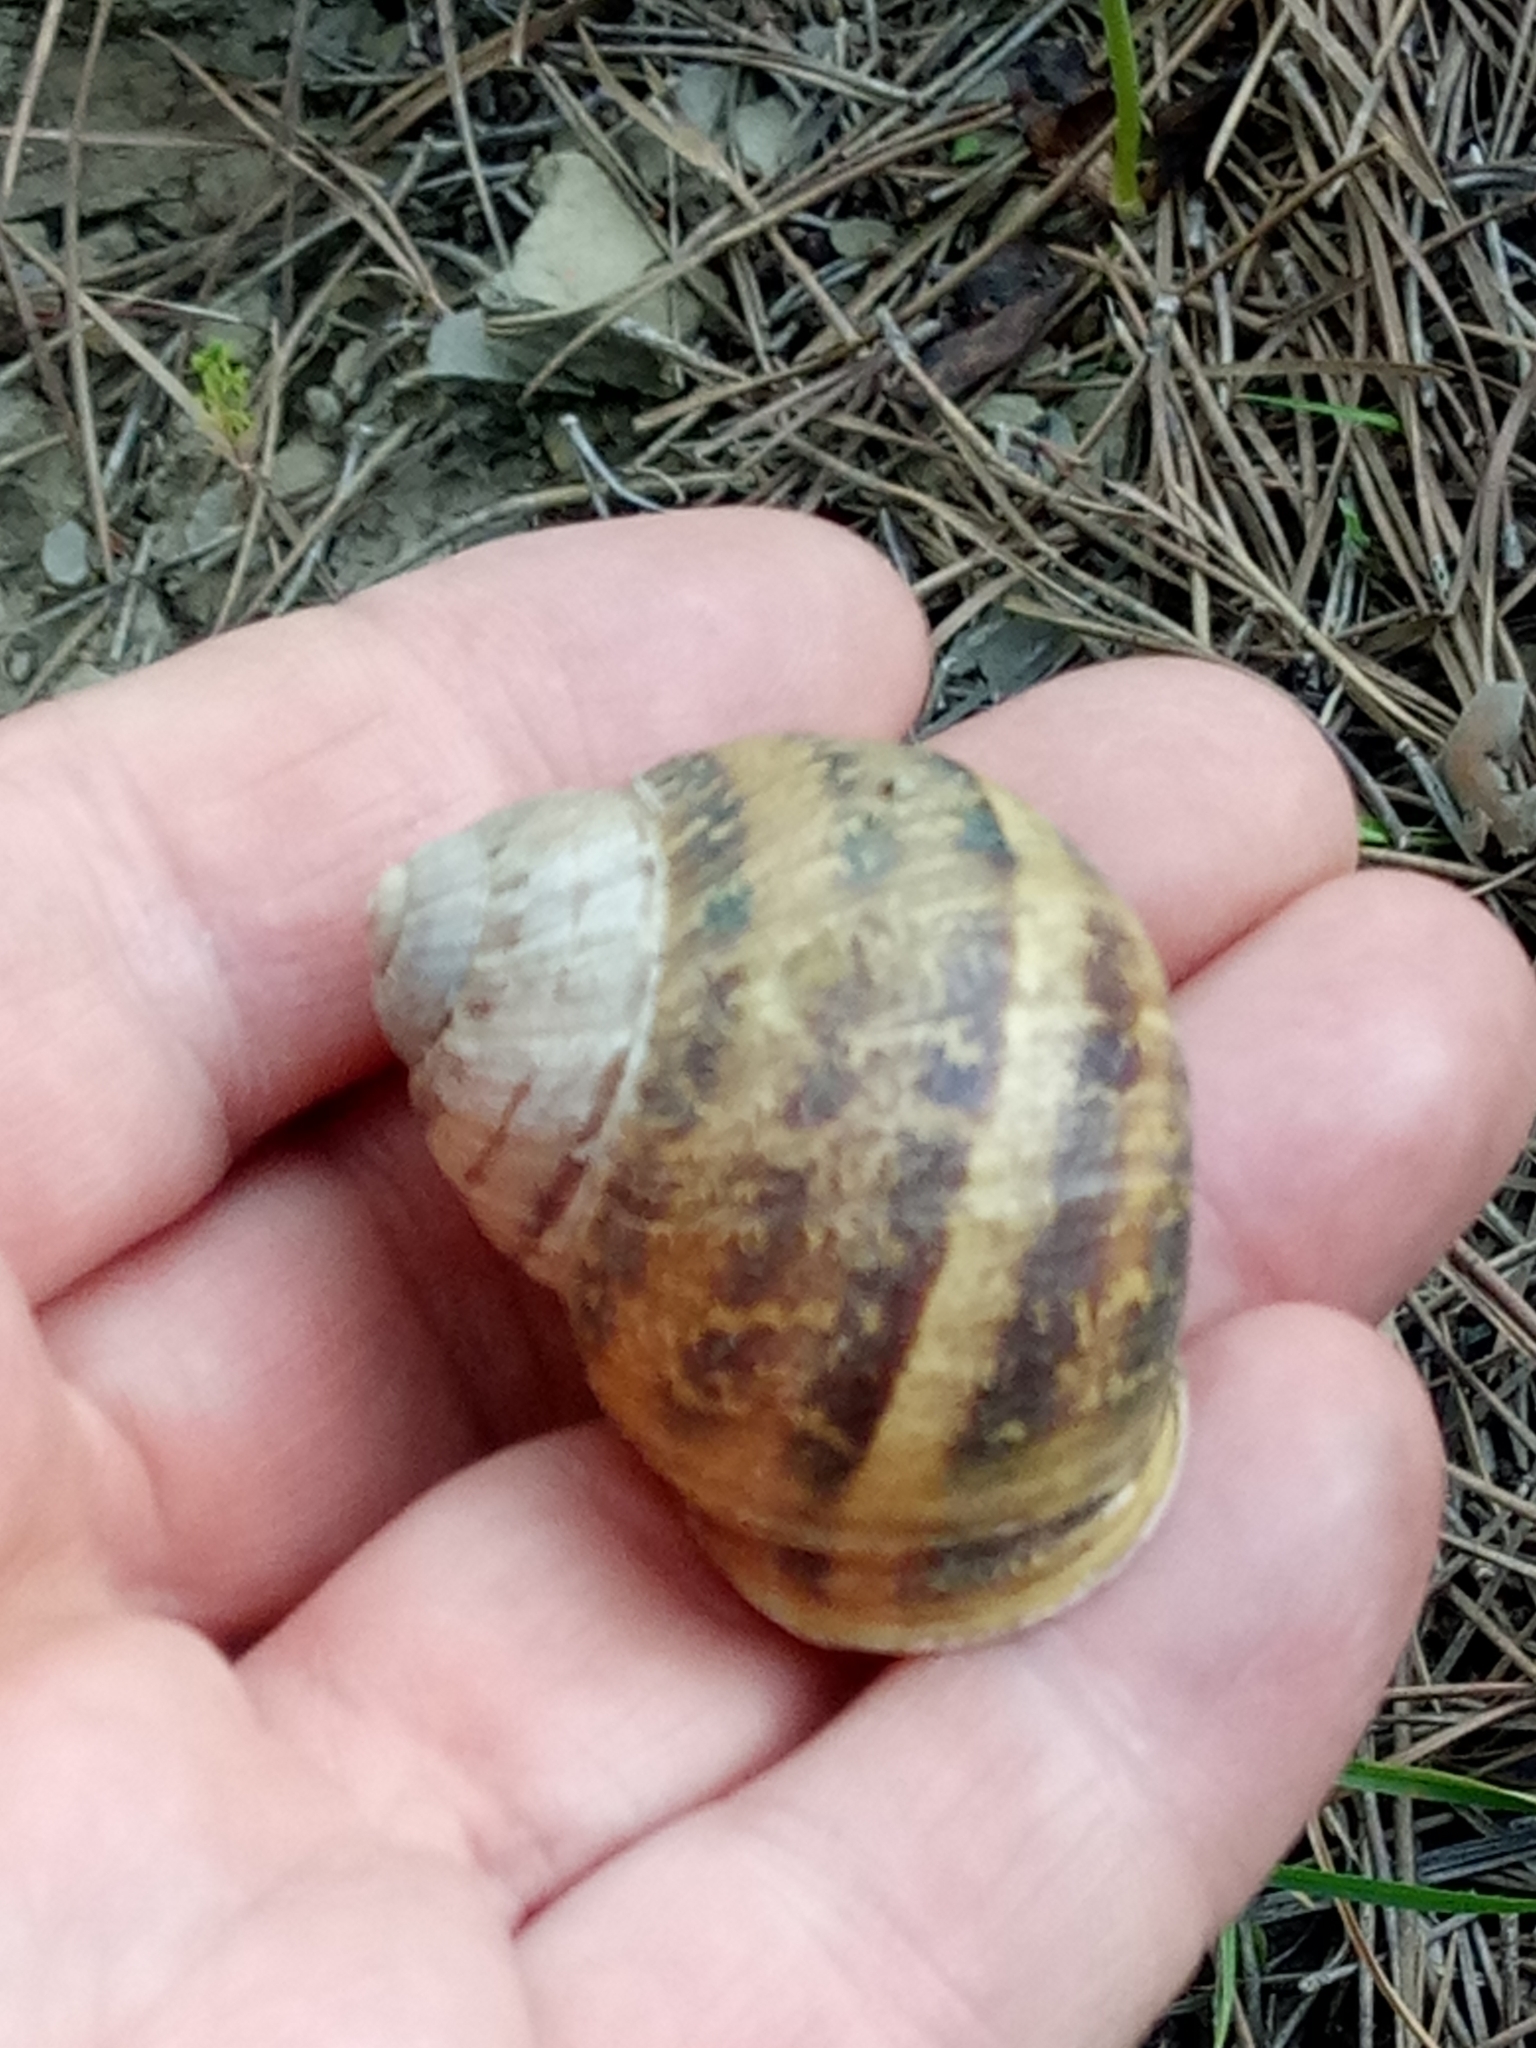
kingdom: Animalia
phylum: Mollusca
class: Gastropoda
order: Stylommatophora
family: Helicidae
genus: Cornu
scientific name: Cornu aspersum
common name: Brown garden snail
